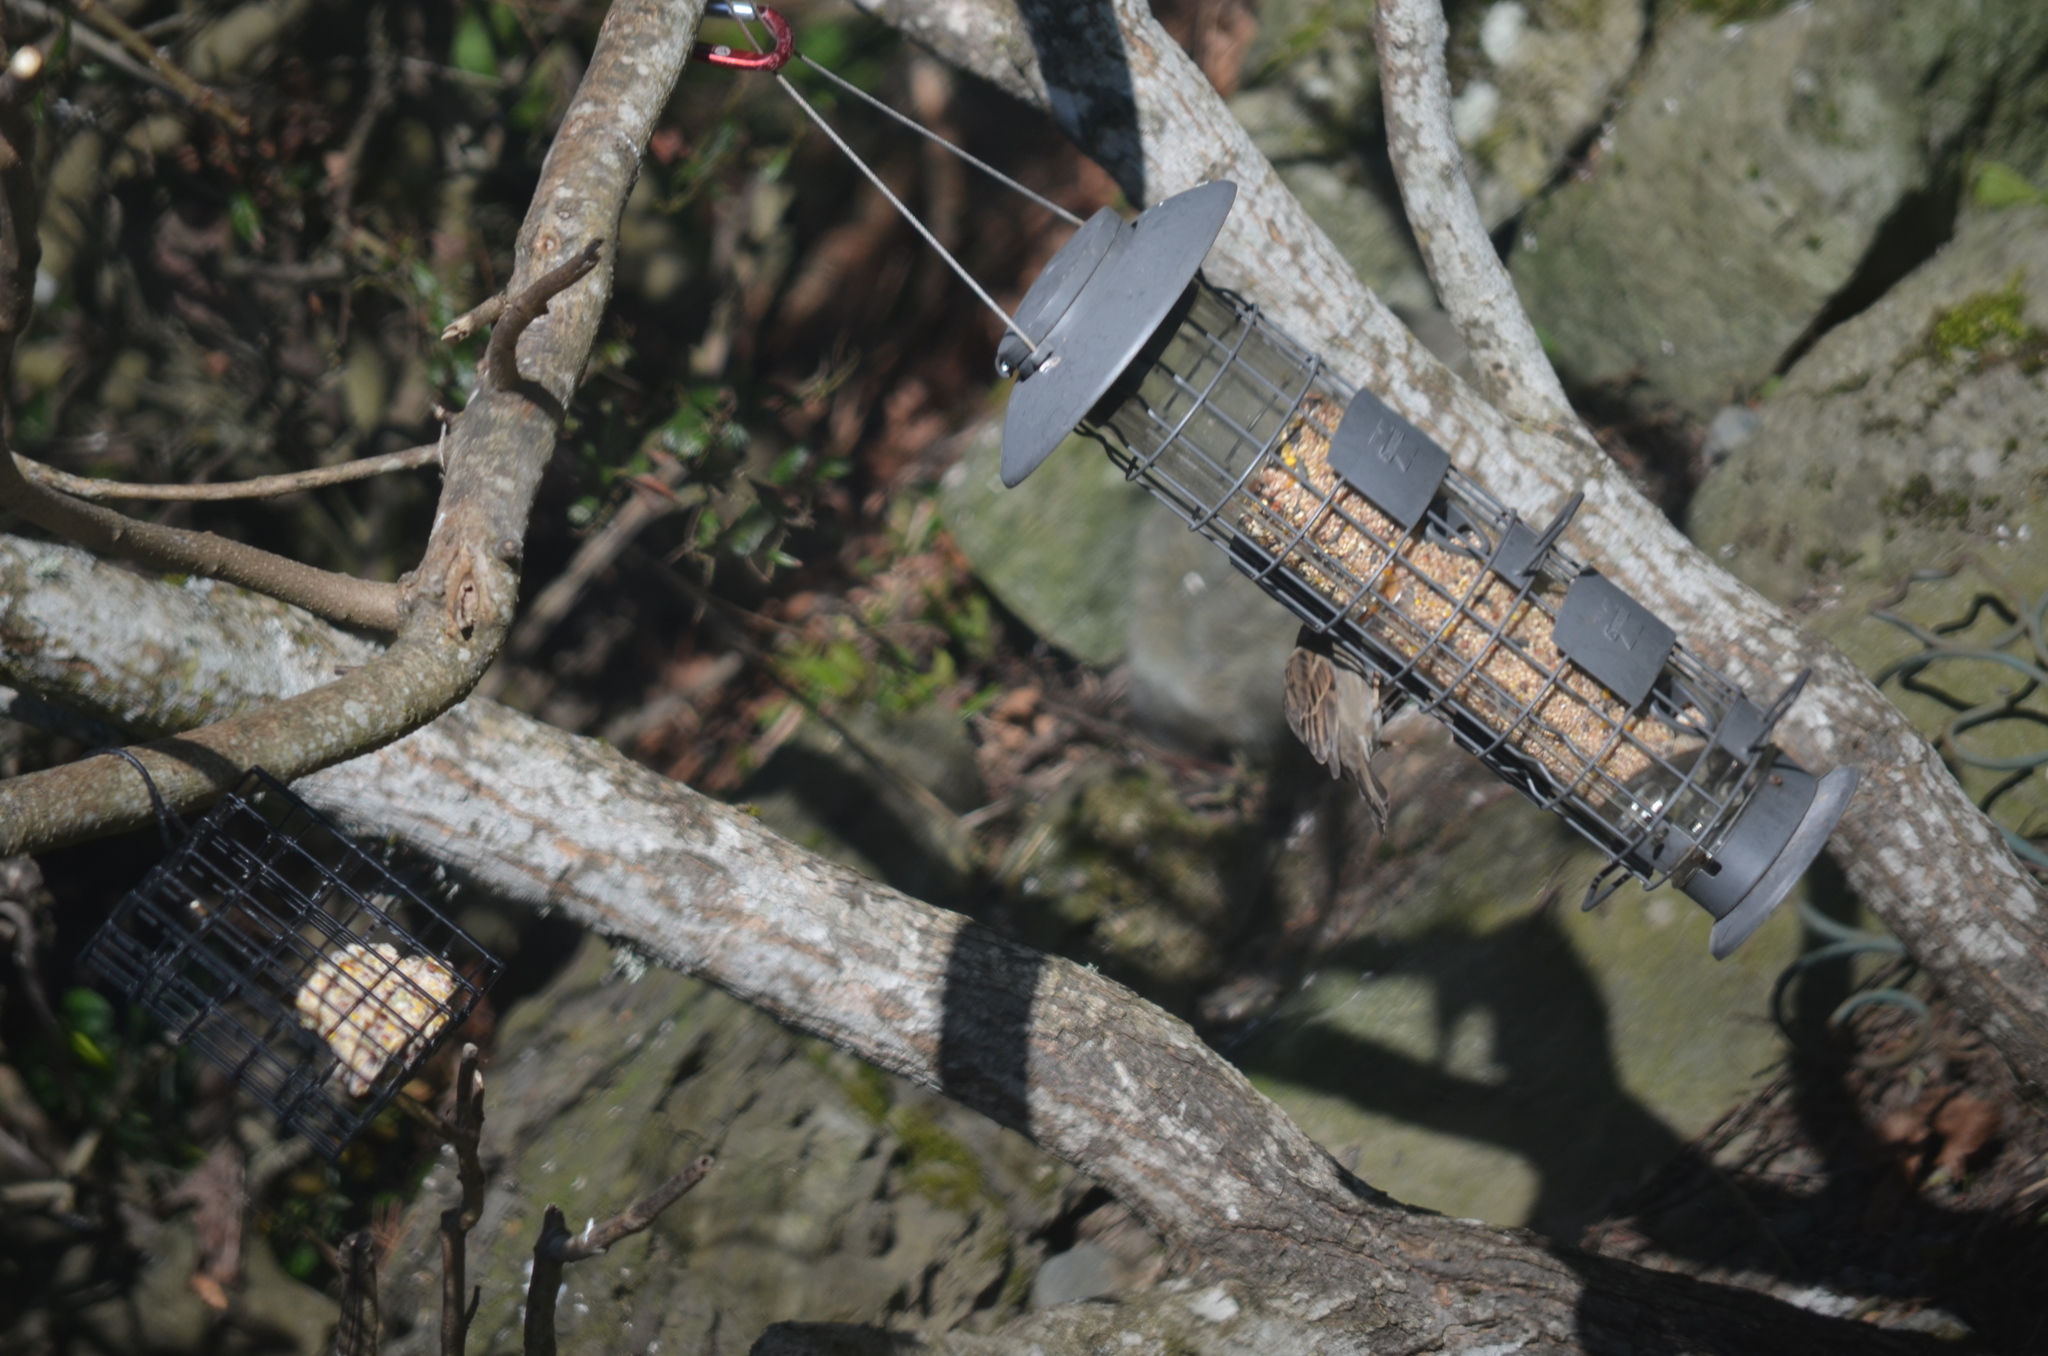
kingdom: Animalia
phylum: Chordata
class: Aves
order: Passeriformes
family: Passeridae
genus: Passer
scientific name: Passer domesticus
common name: House sparrow
